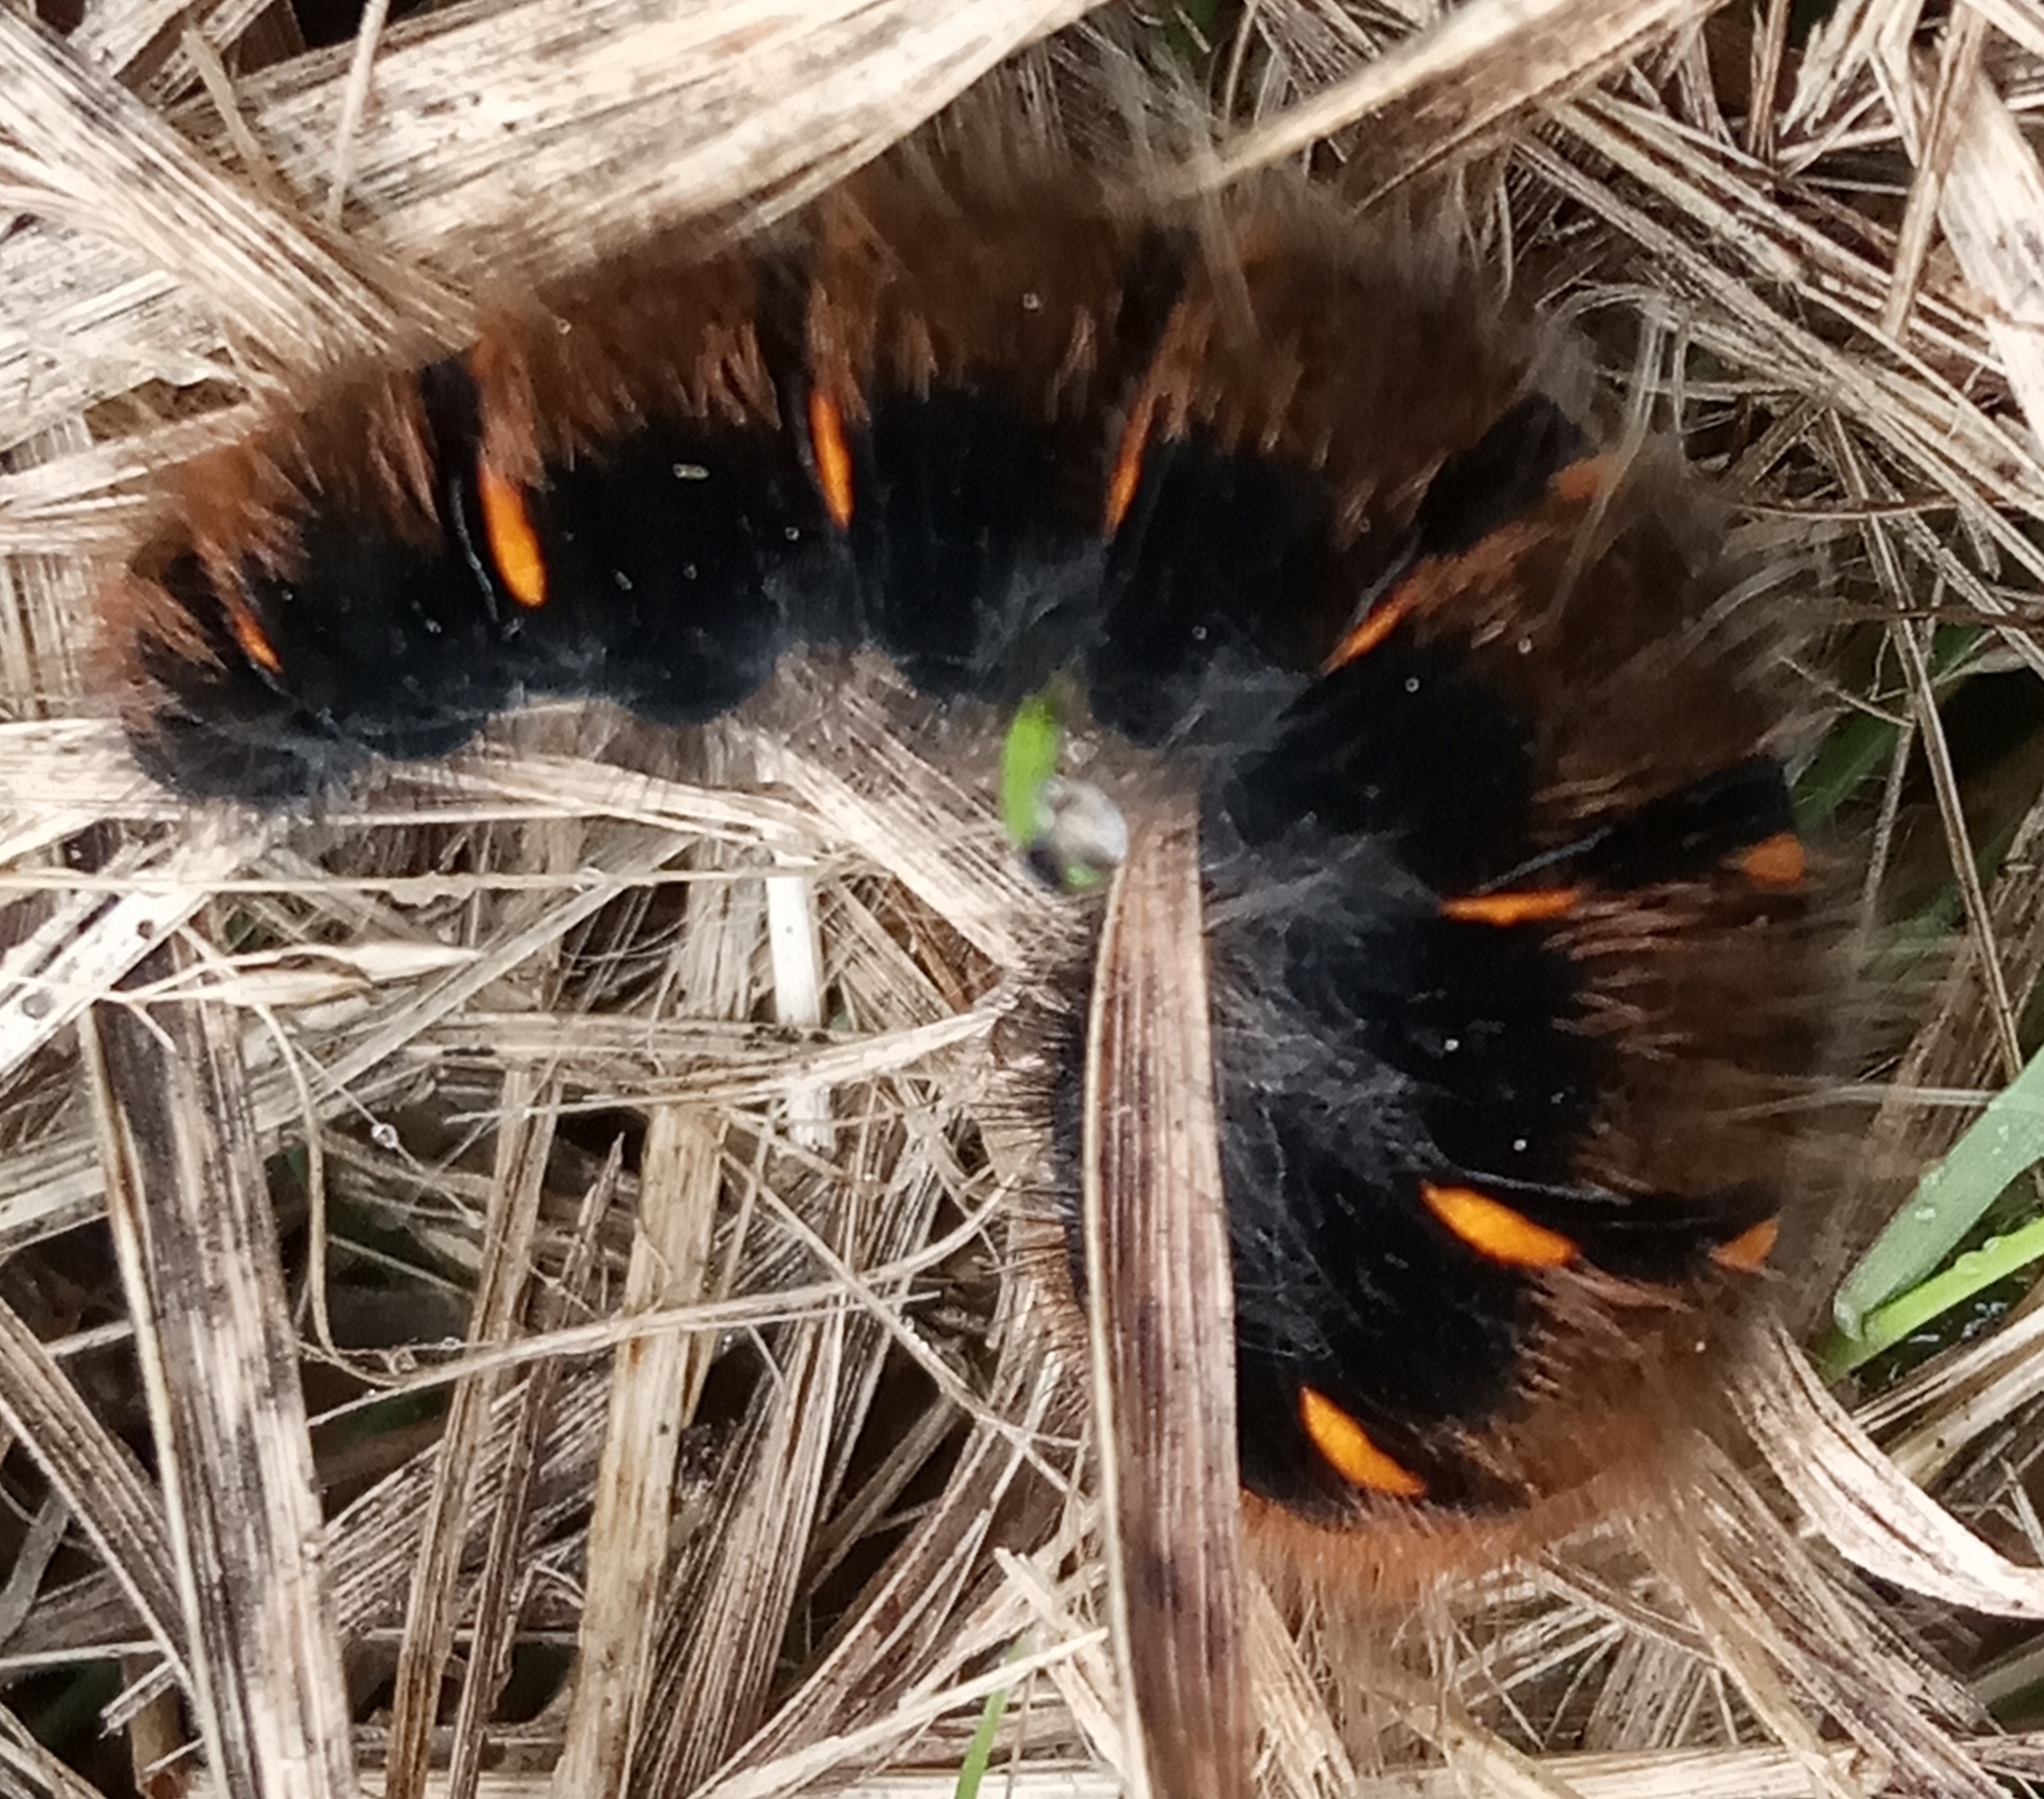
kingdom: Animalia
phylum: Arthropoda
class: Insecta
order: Lepidoptera
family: Lasiocampidae
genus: Macrothylacia
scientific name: Macrothylacia rubi
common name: Fox moth
